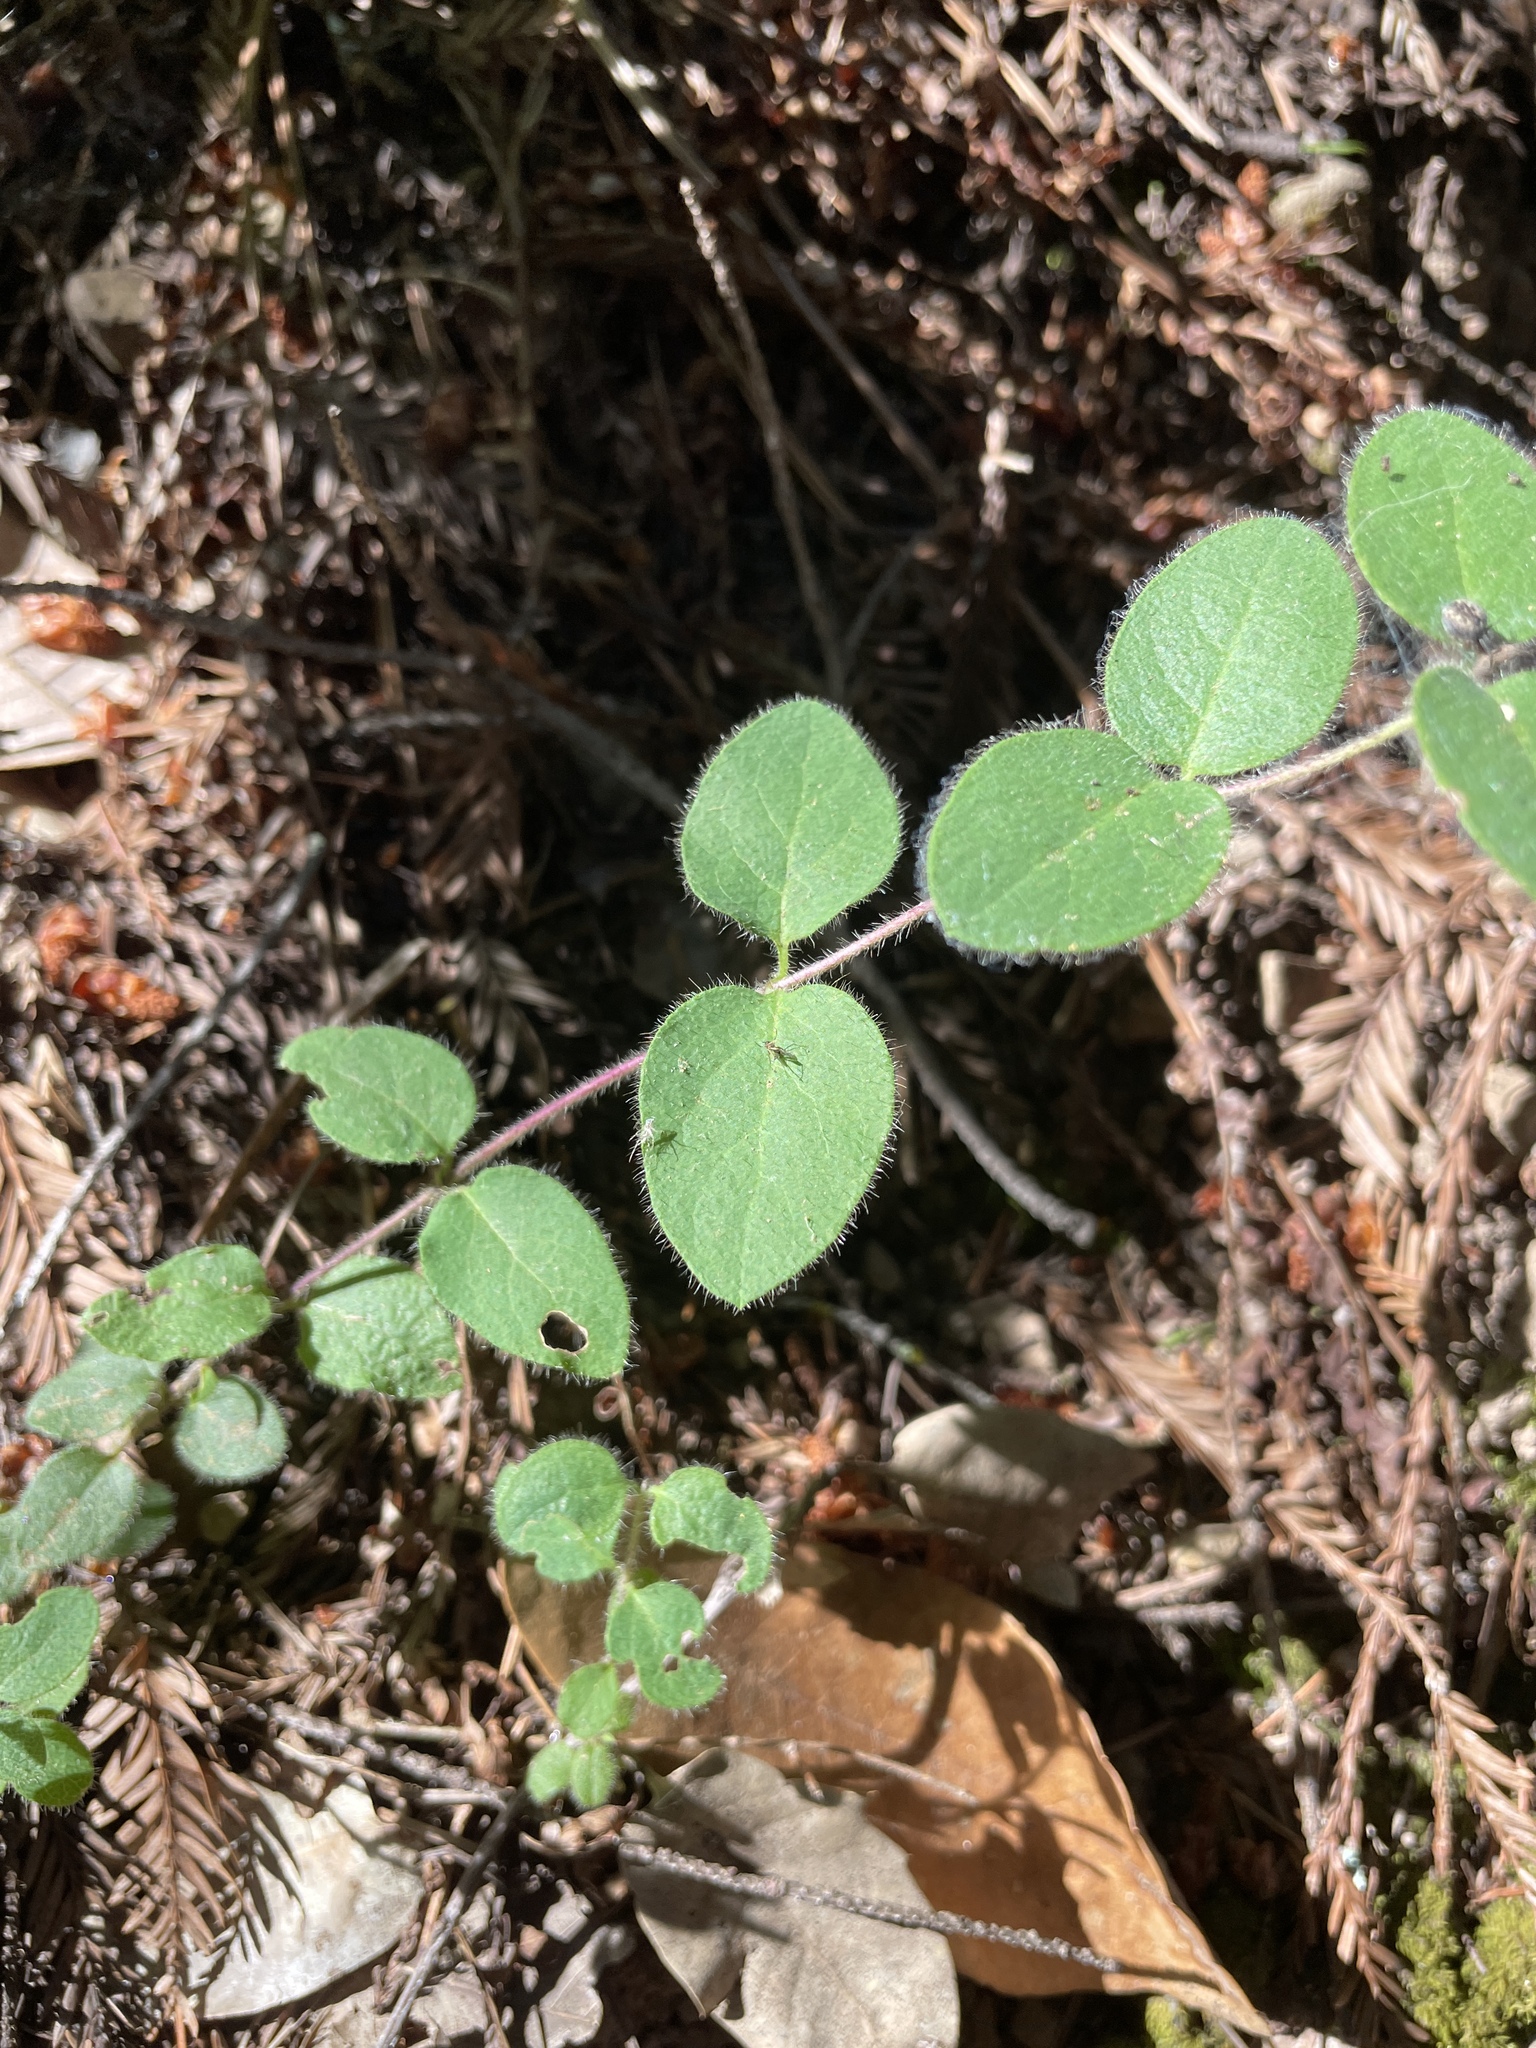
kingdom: Plantae
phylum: Tracheophyta
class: Magnoliopsida
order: Dipsacales
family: Caprifoliaceae
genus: Lonicera
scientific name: Lonicera hispidula
